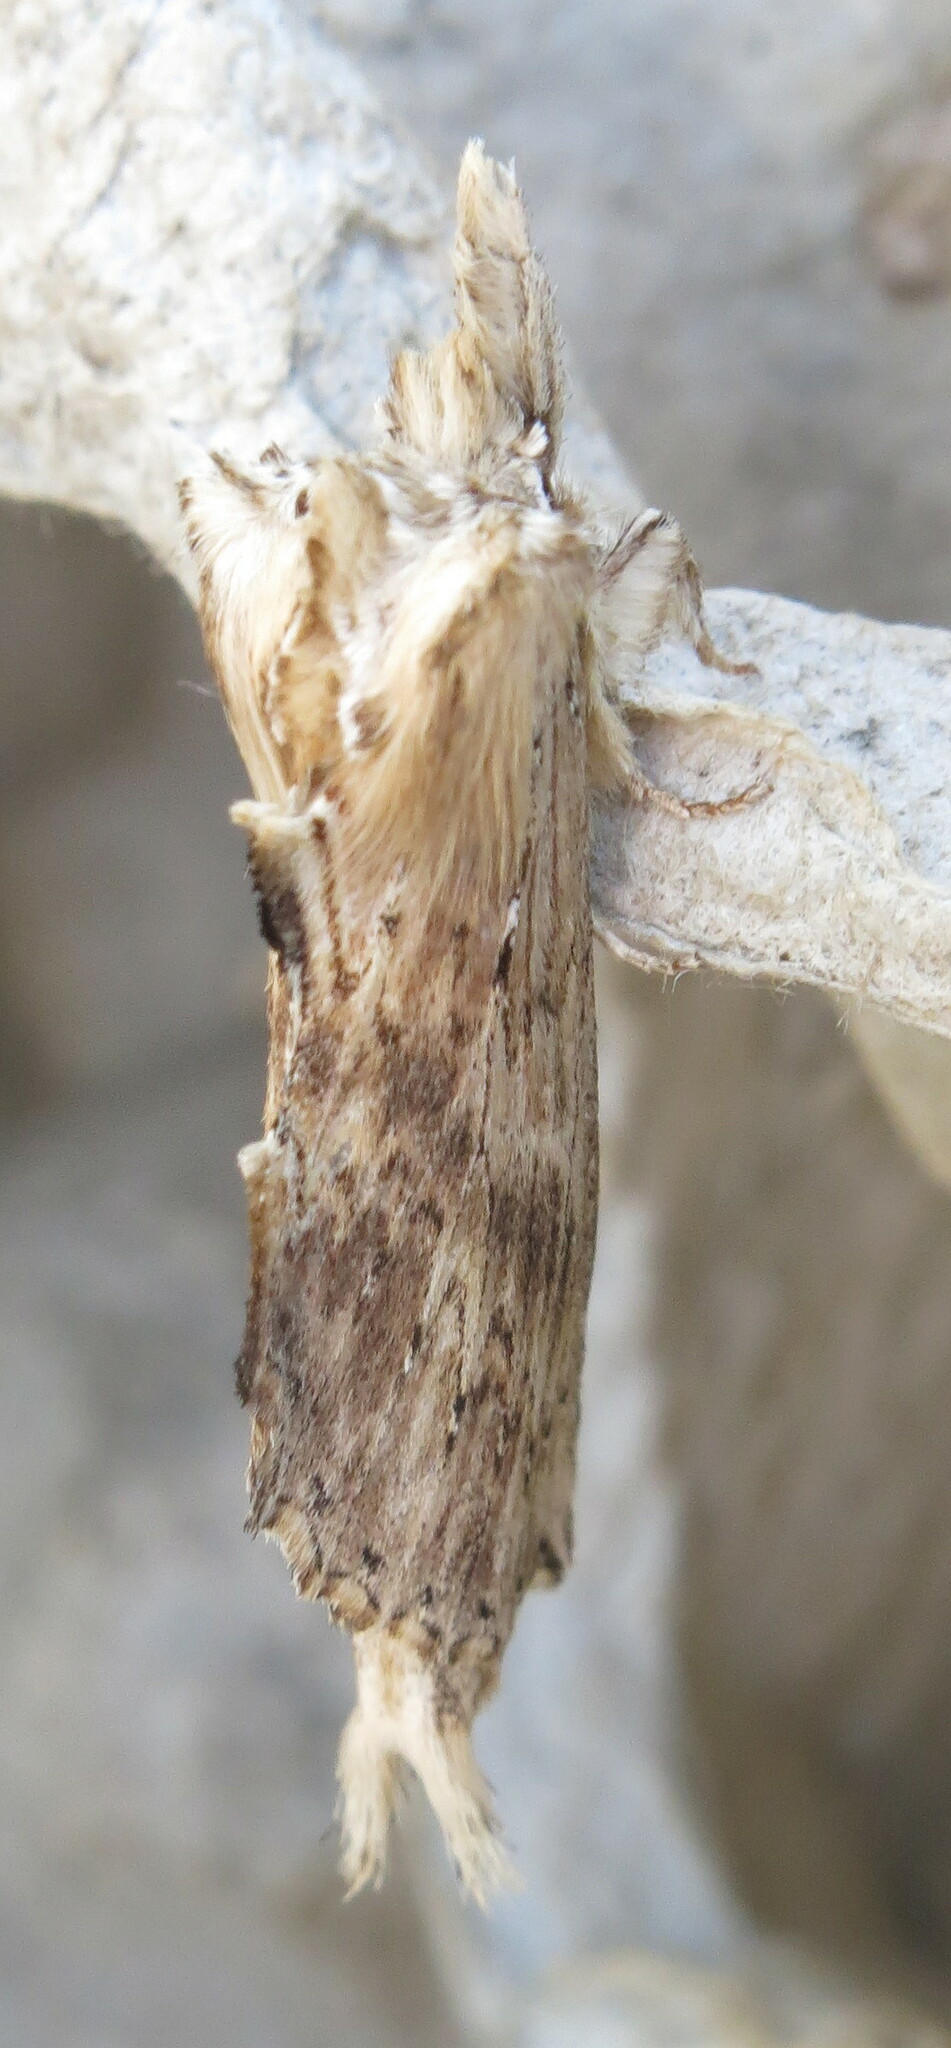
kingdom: Animalia
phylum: Arthropoda
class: Insecta
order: Lepidoptera
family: Notodontidae
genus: Pterostoma
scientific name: Pterostoma palpina
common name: Pale prominent
